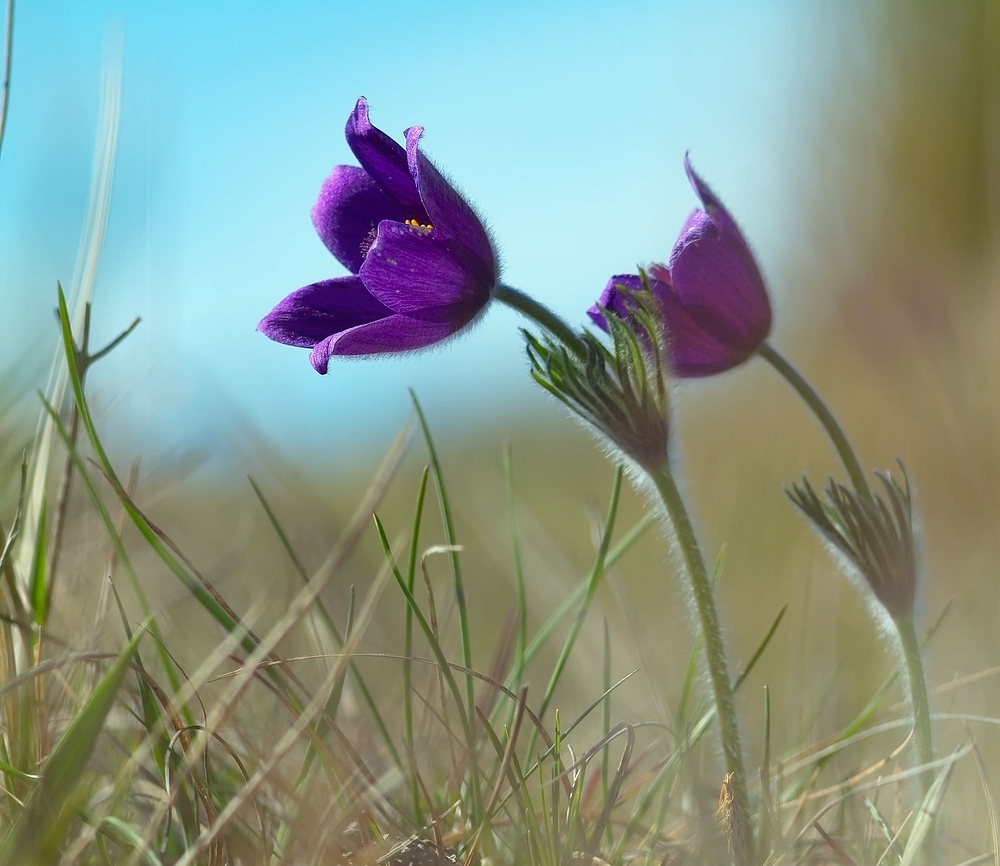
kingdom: Plantae
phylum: Tracheophyta
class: Magnoliopsida
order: Ranunculales
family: Ranunculaceae
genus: Pulsatilla
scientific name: Pulsatilla vulgaris
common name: Pasqueflower
